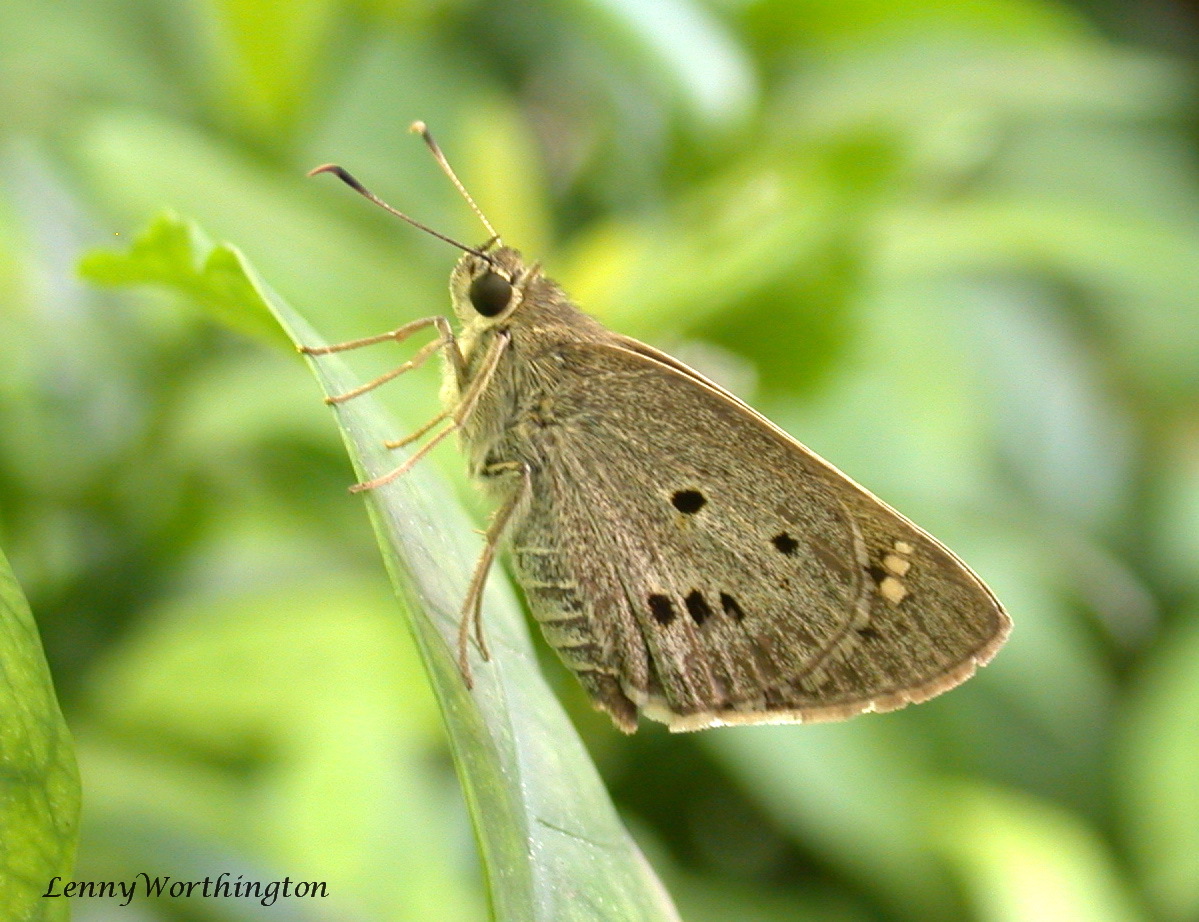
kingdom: Animalia
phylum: Arthropoda
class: Insecta
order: Lepidoptera
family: Hesperiidae
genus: Suastus
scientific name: Suastus gremius
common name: Indian palm bob
